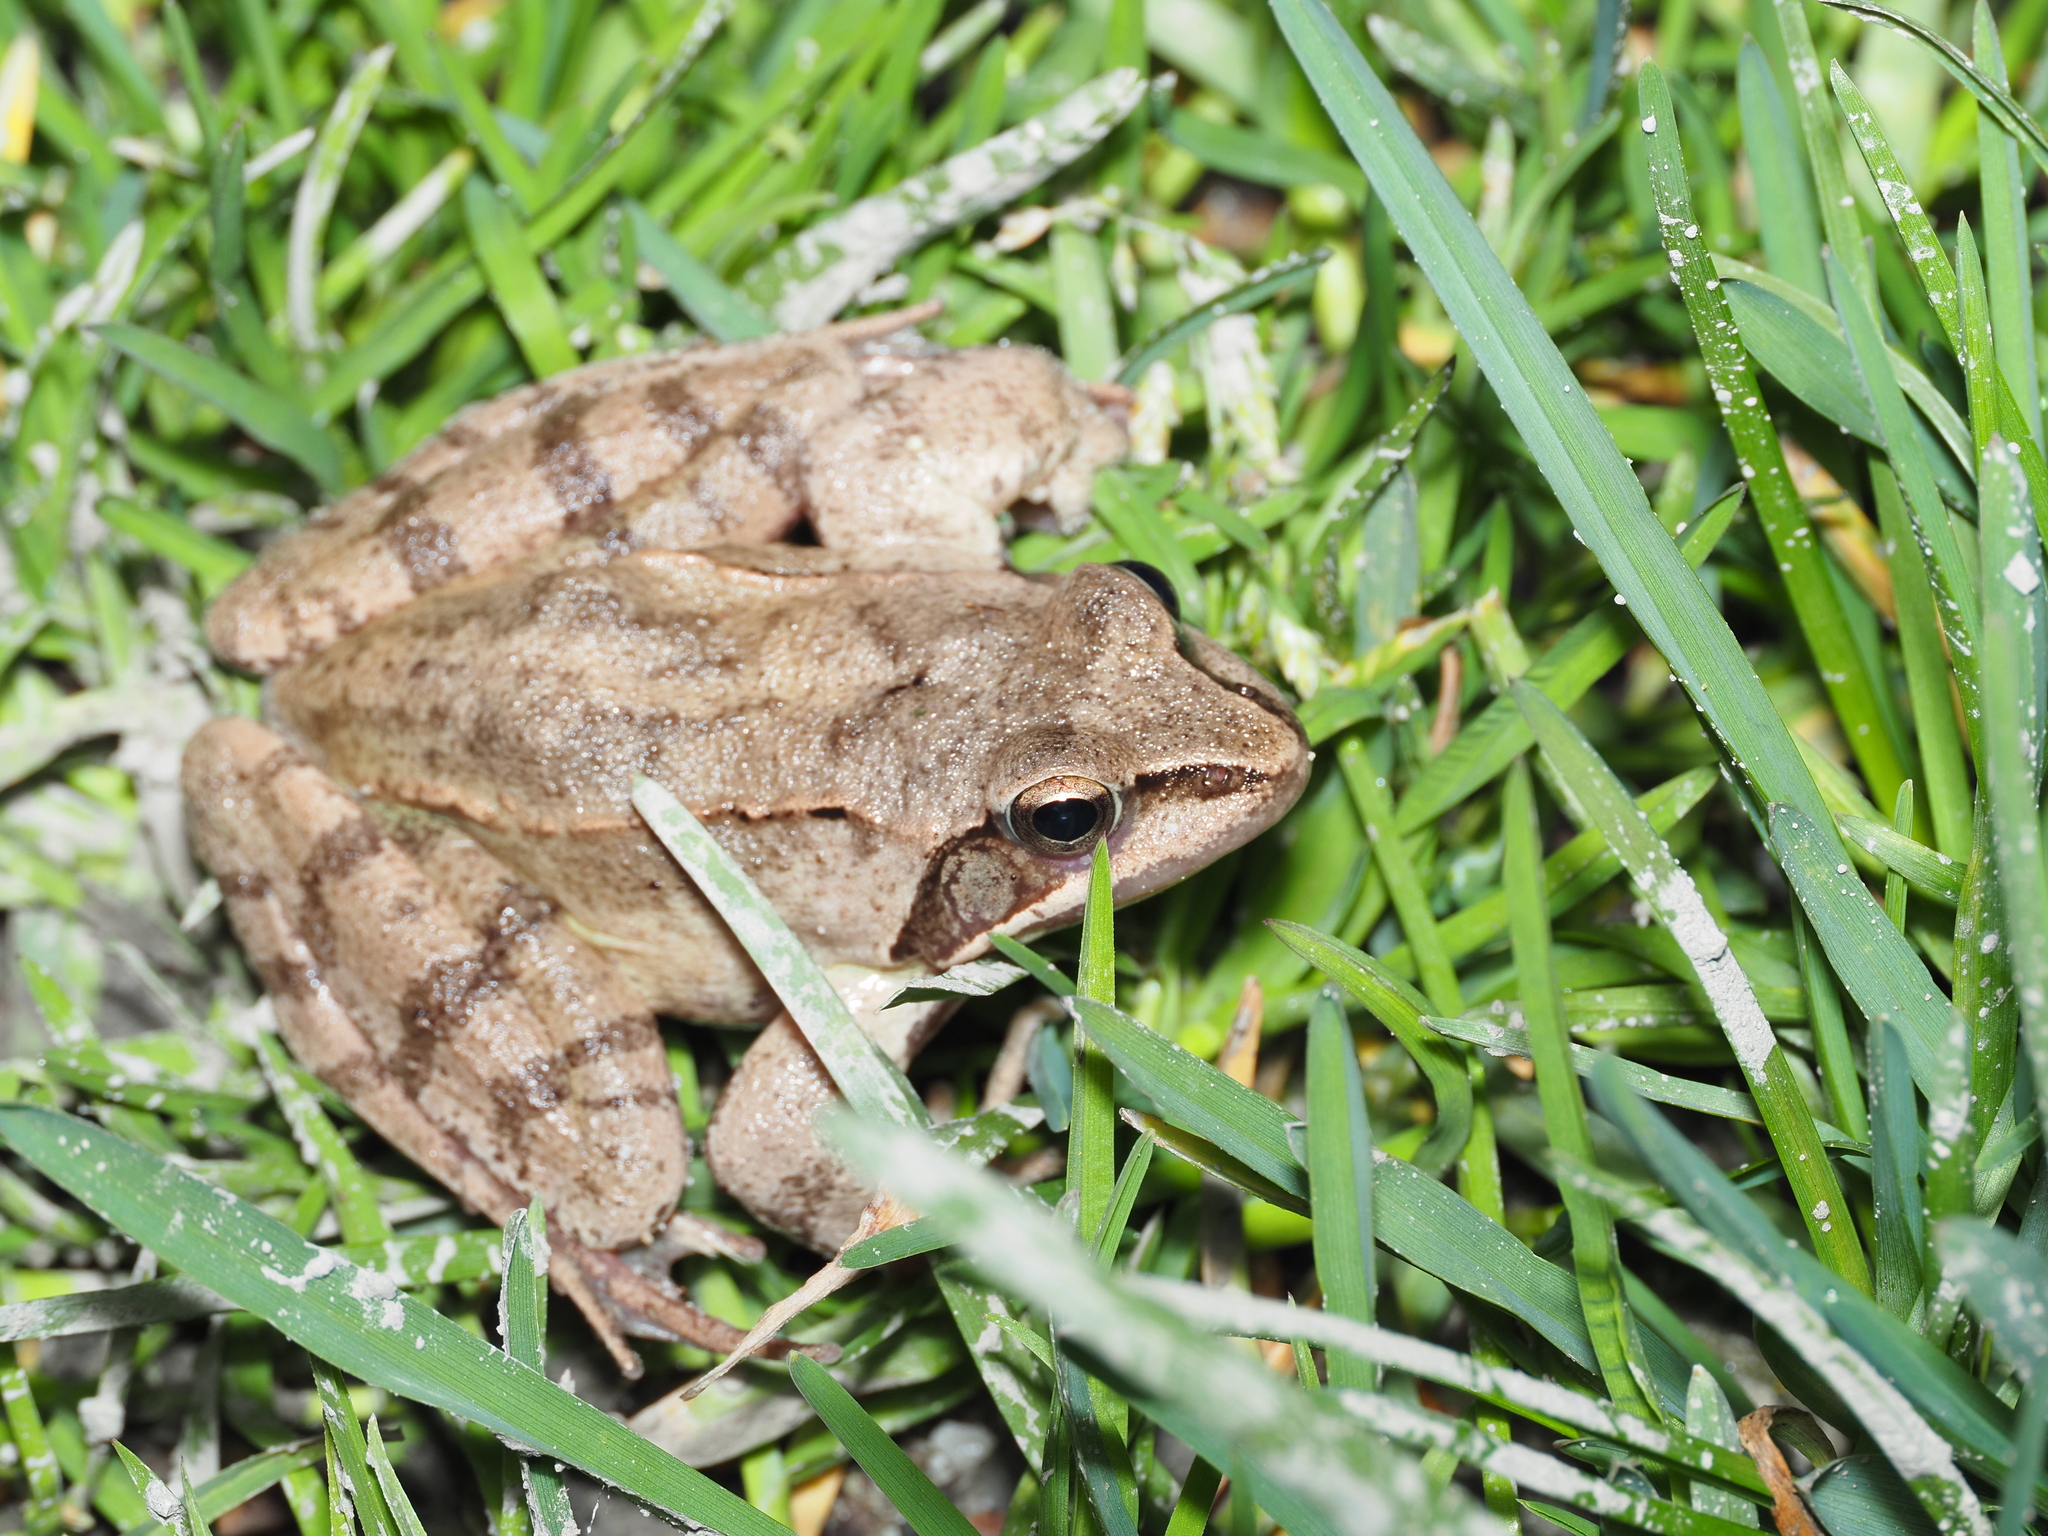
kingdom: Animalia
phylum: Chordata
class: Amphibia
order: Anura
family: Ranidae
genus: Rana
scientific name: Rana dalmatina
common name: Agile frog
